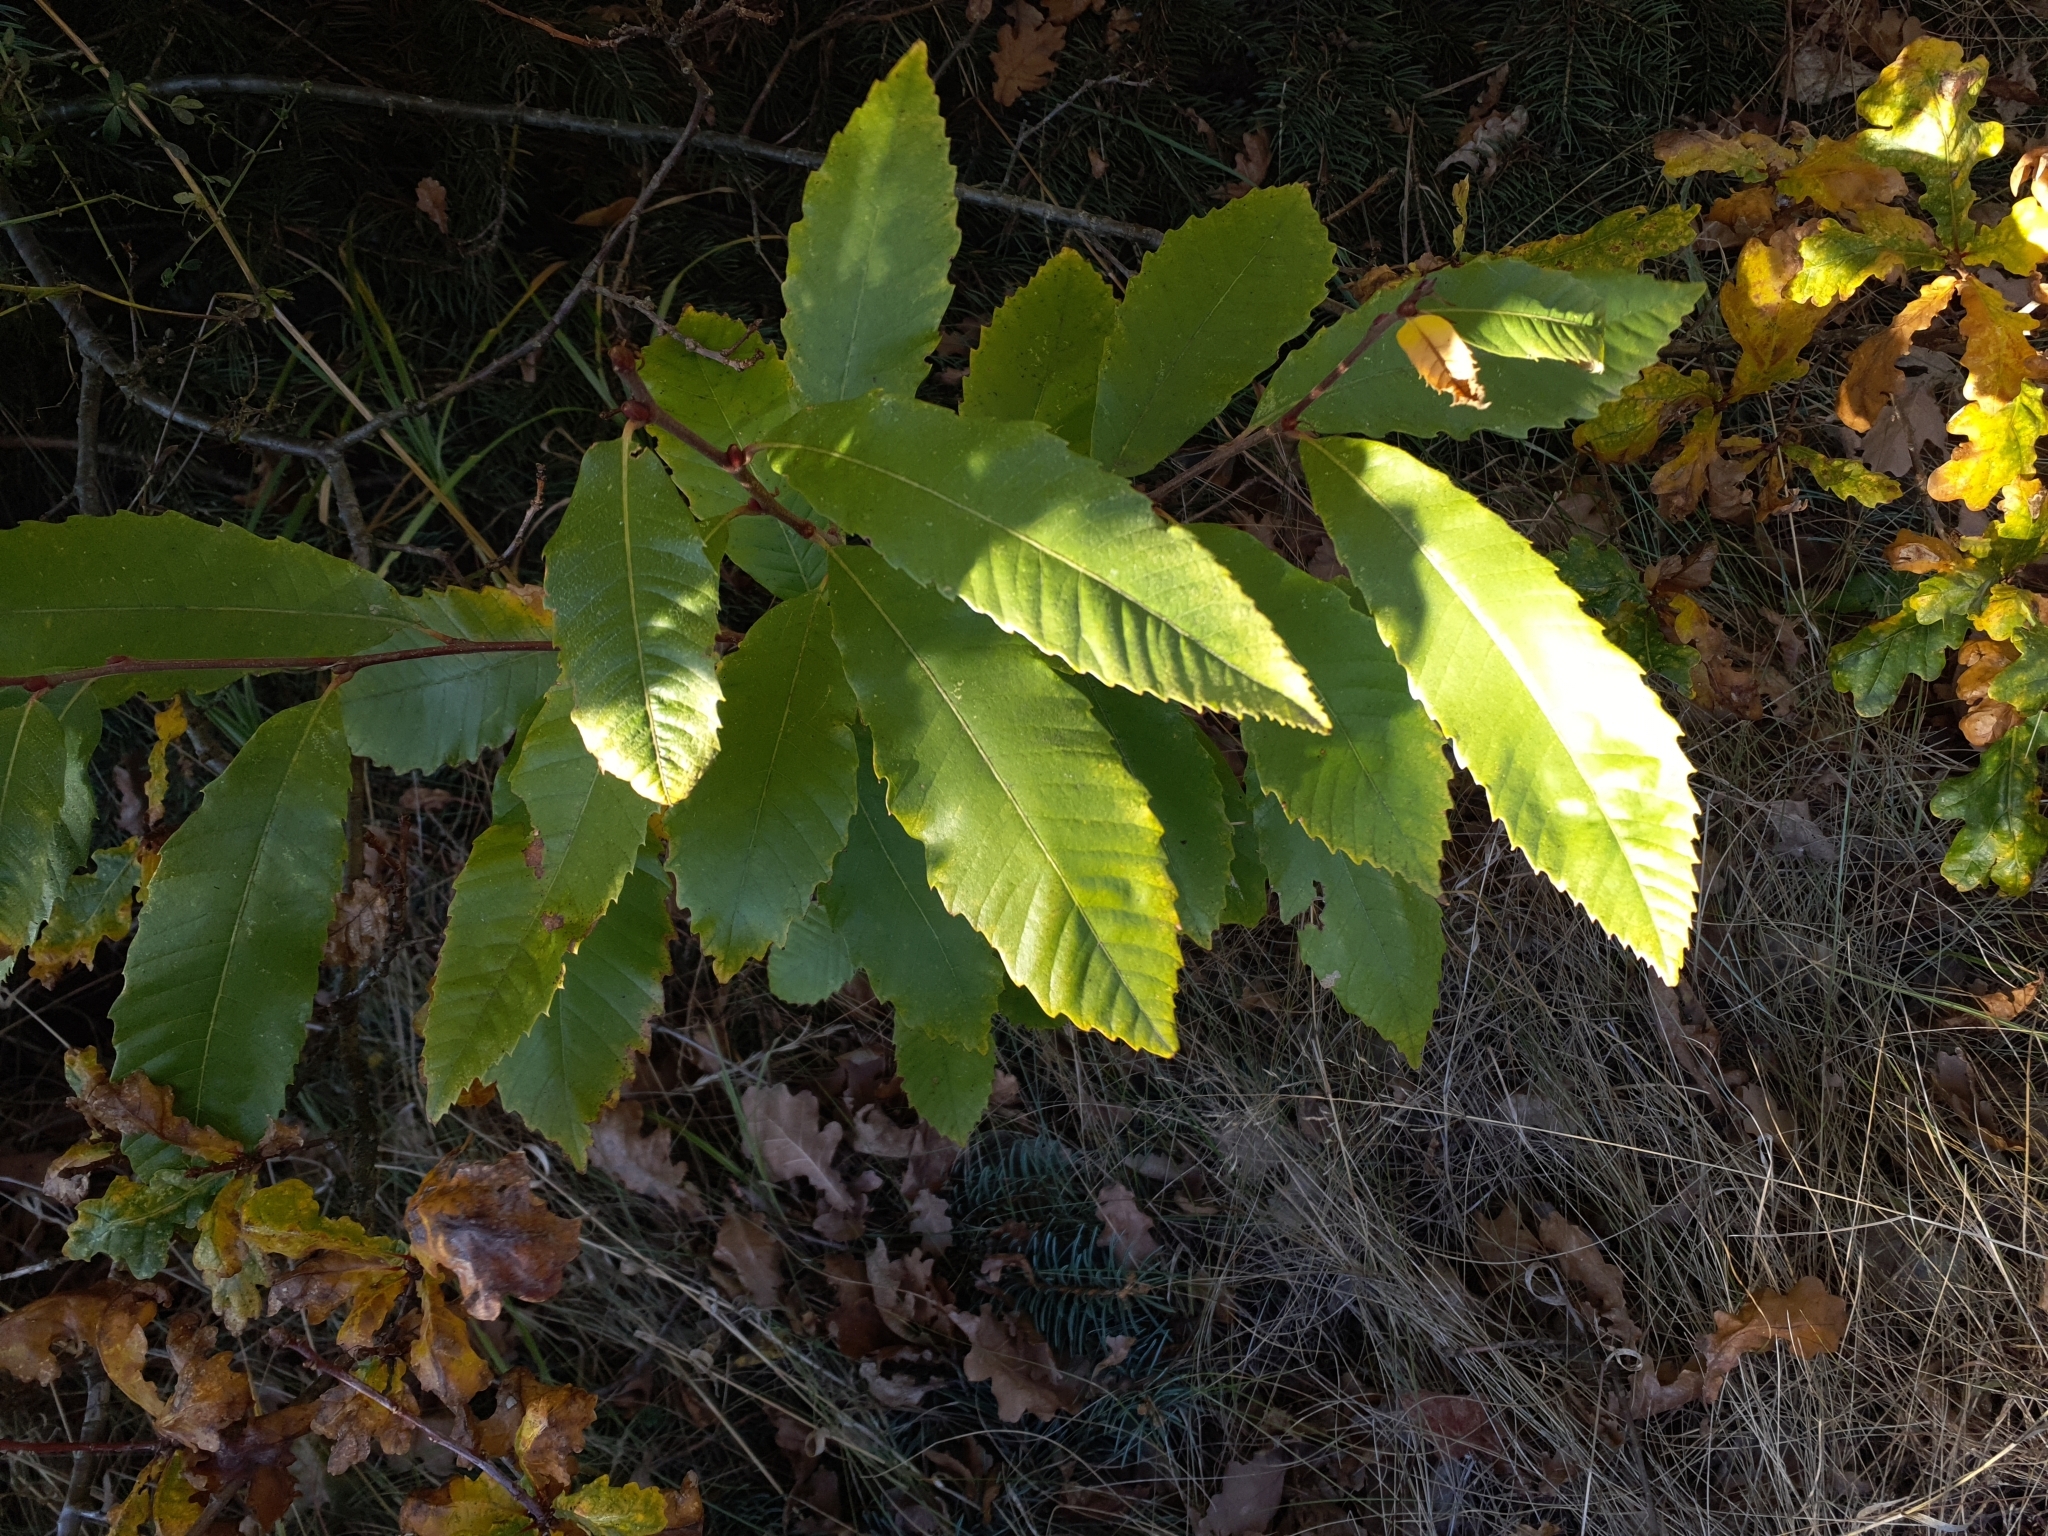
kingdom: Plantae
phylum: Tracheophyta
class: Magnoliopsida
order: Fagales
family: Fagaceae
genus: Castanea
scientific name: Castanea sativa
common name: Sweet chestnut
